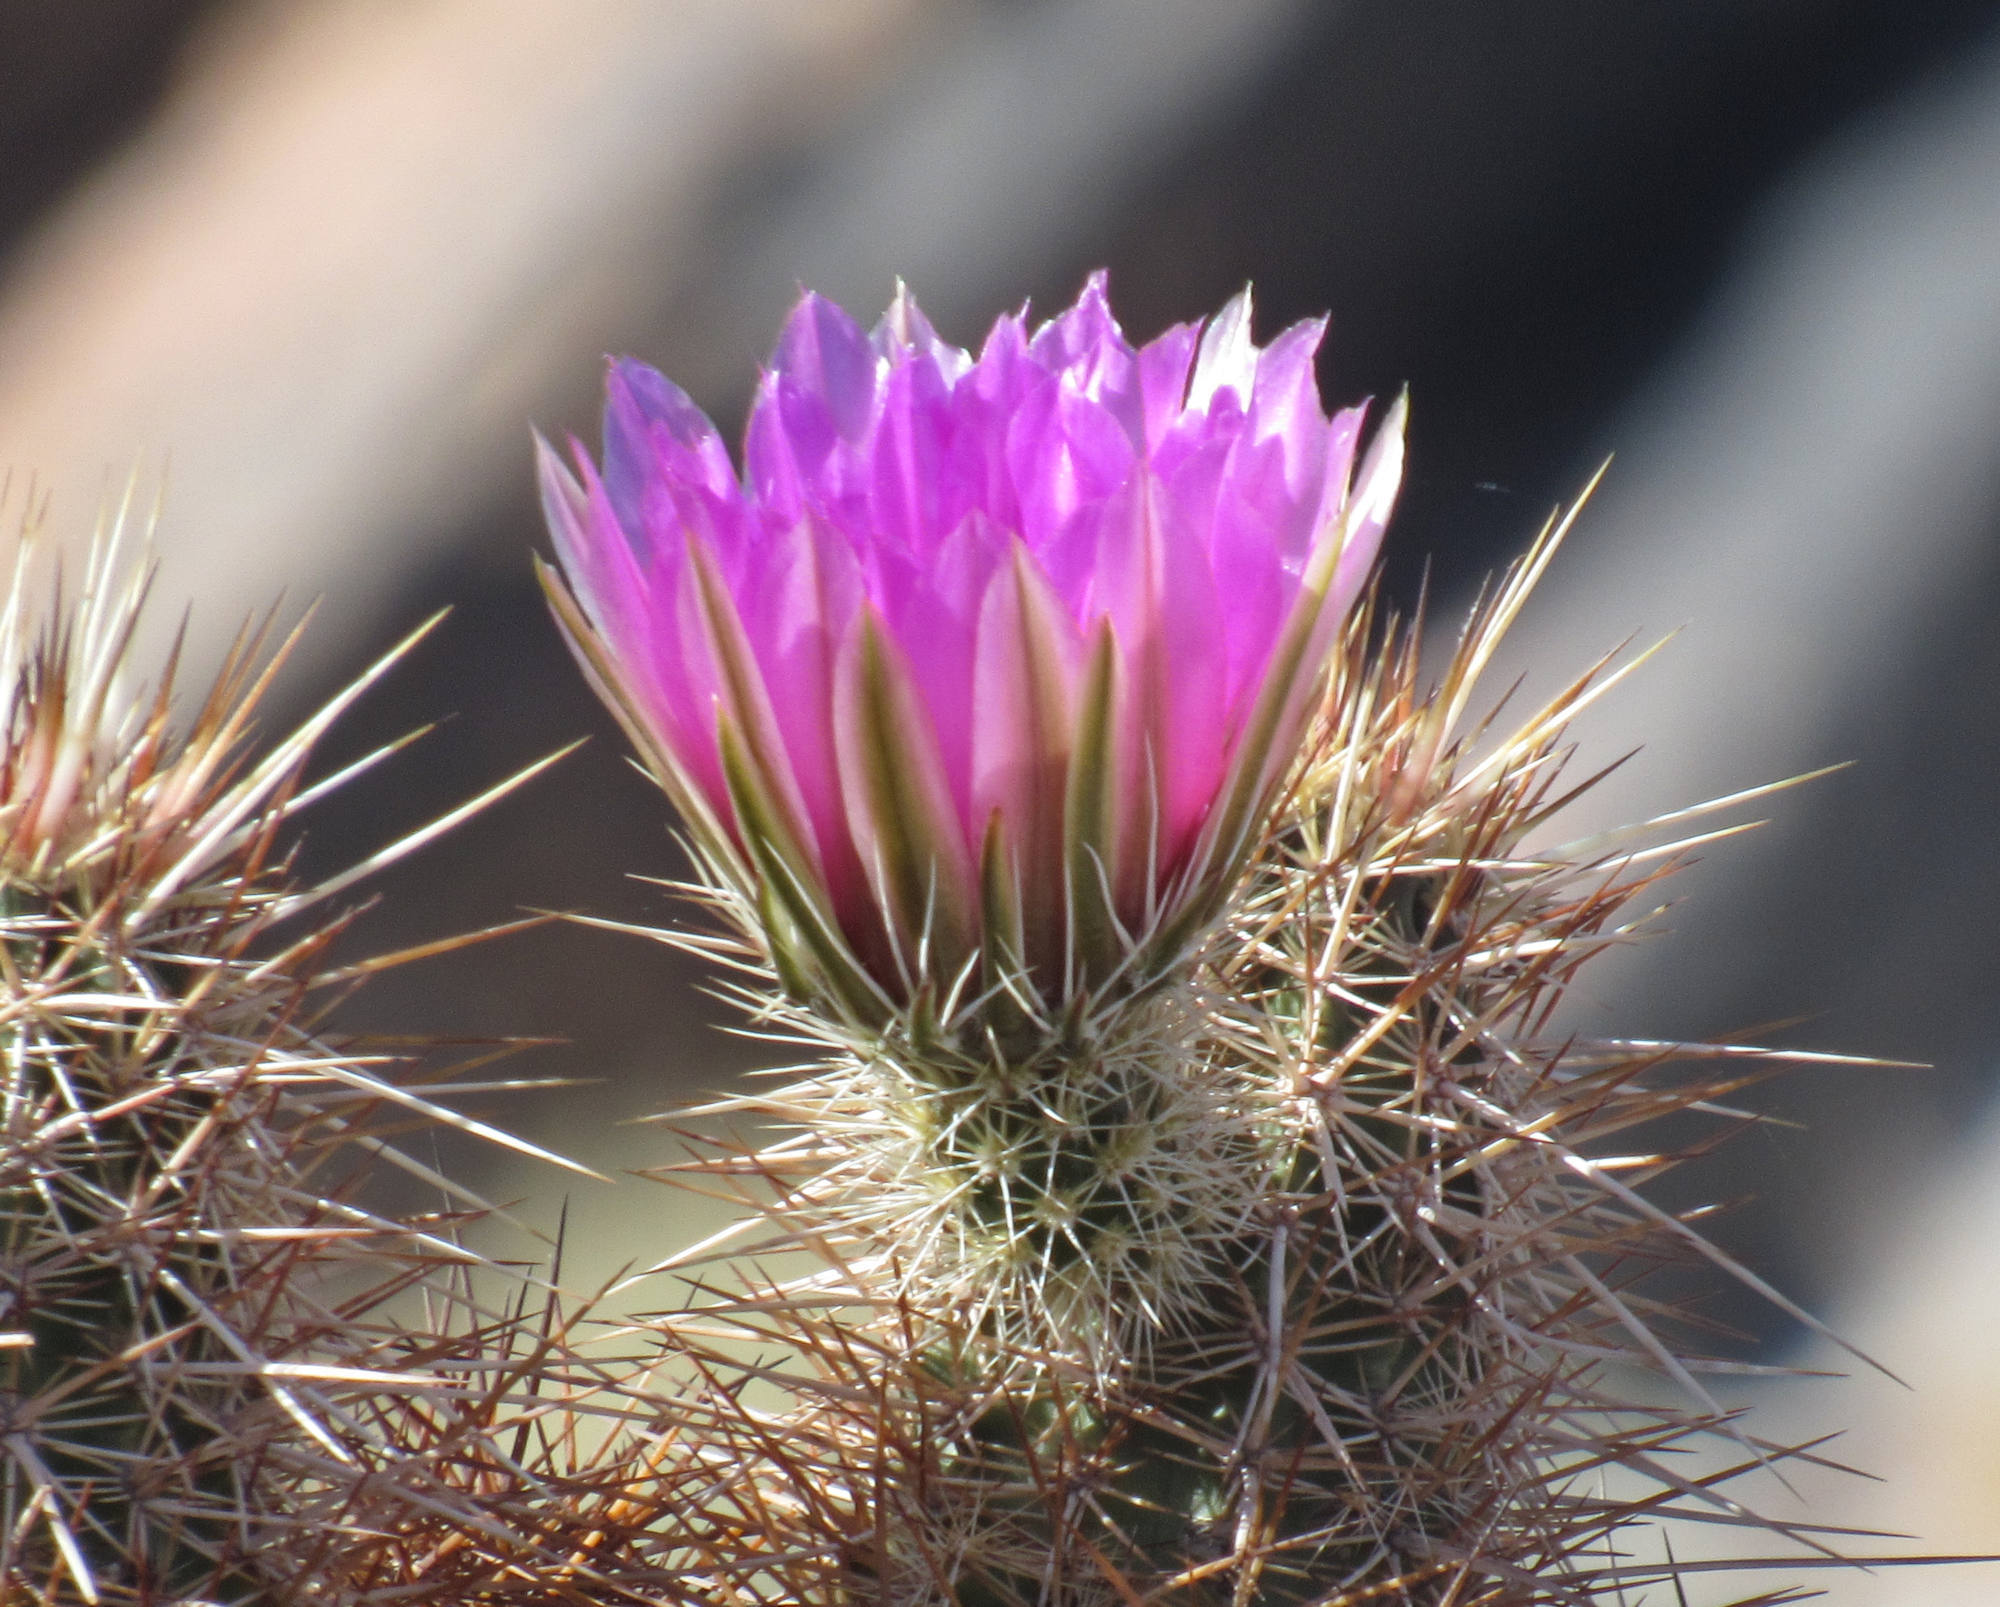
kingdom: Plantae
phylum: Tracheophyta
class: Magnoliopsida
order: Caryophyllales
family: Cactaceae
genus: Echinocereus
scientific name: Echinocereus engelmannii
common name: Engelmann's hedgehog cactus
